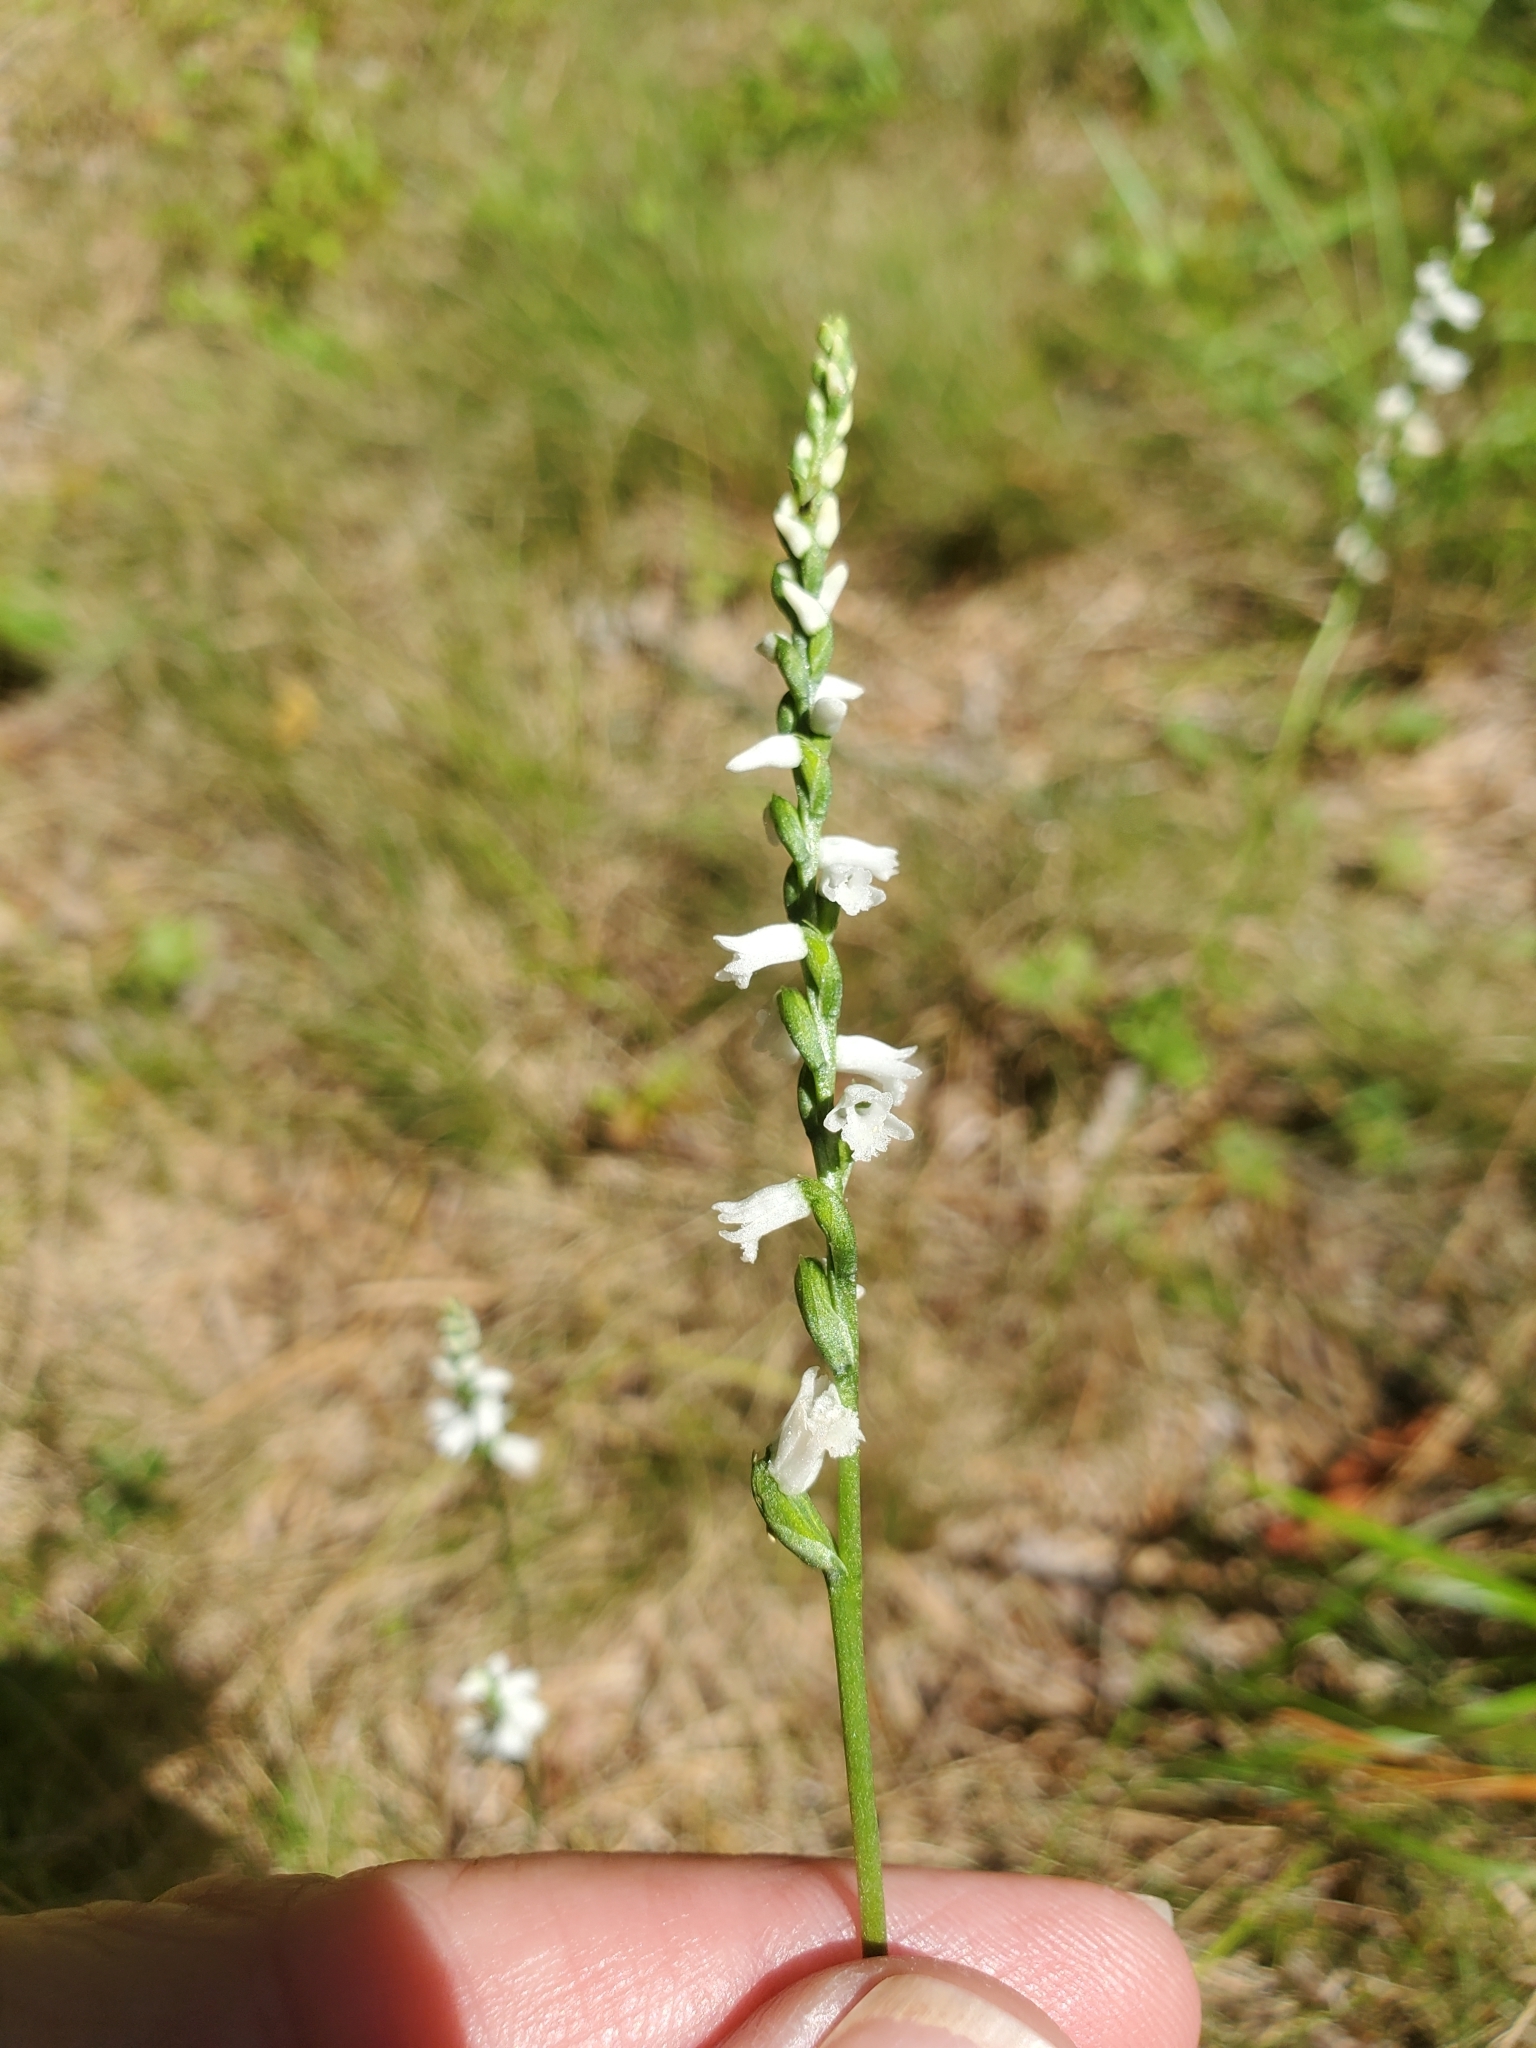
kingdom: Plantae
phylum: Tracheophyta
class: Liliopsida
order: Asparagales
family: Orchidaceae
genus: Spiranthes
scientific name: Spiranthes tuberosa
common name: Little ladies'-tresses
